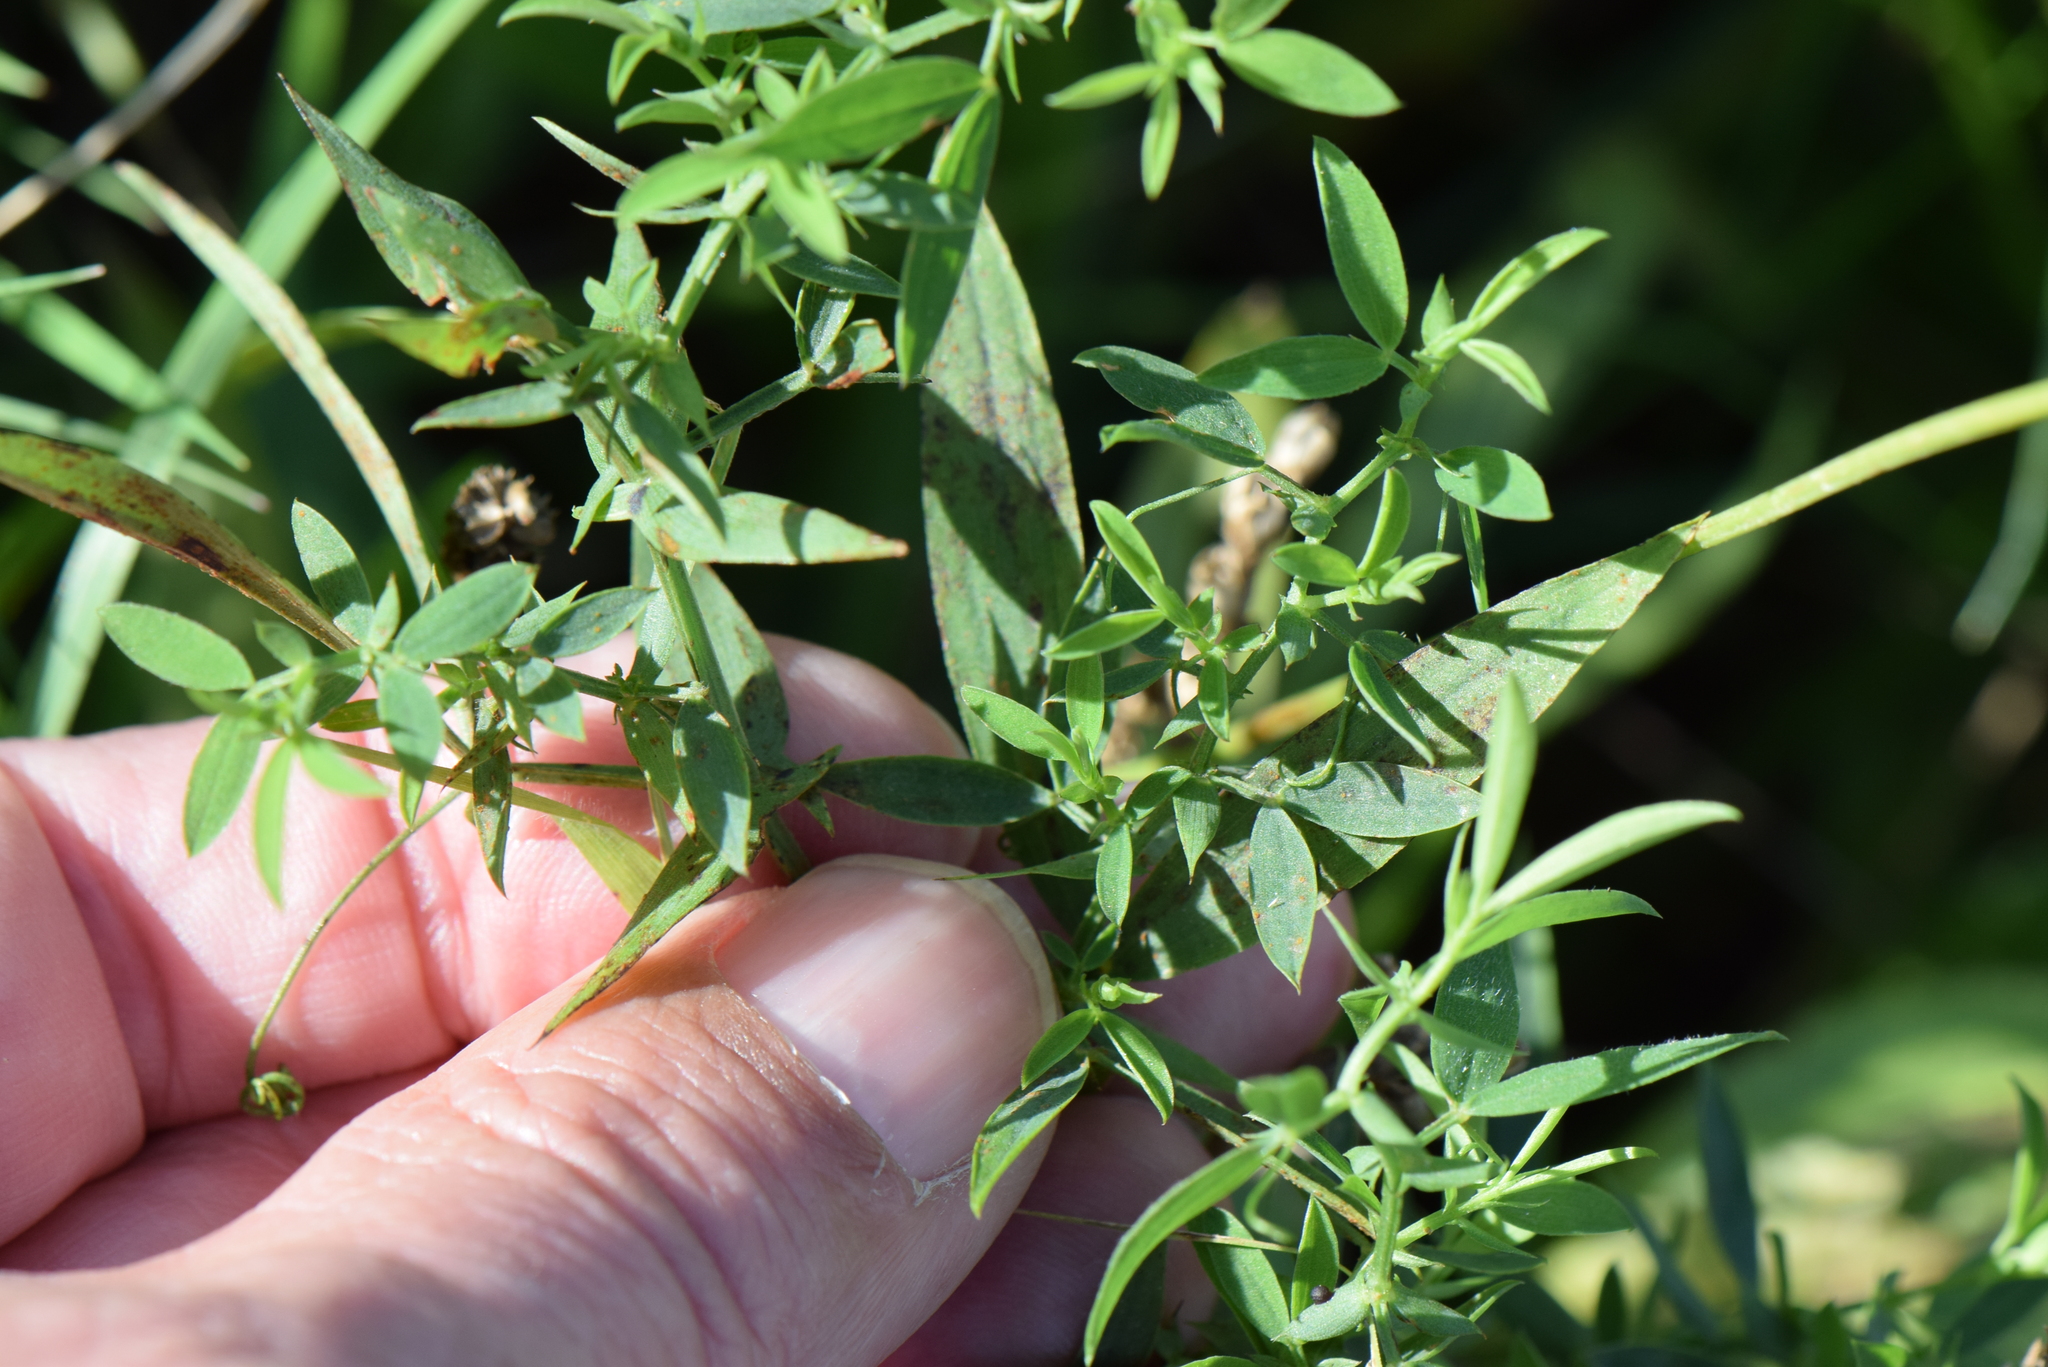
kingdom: Plantae
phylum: Tracheophyta
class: Magnoliopsida
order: Fabales
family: Fabaceae
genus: Lathyrus
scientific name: Lathyrus pratensis
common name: Meadow vetchling
